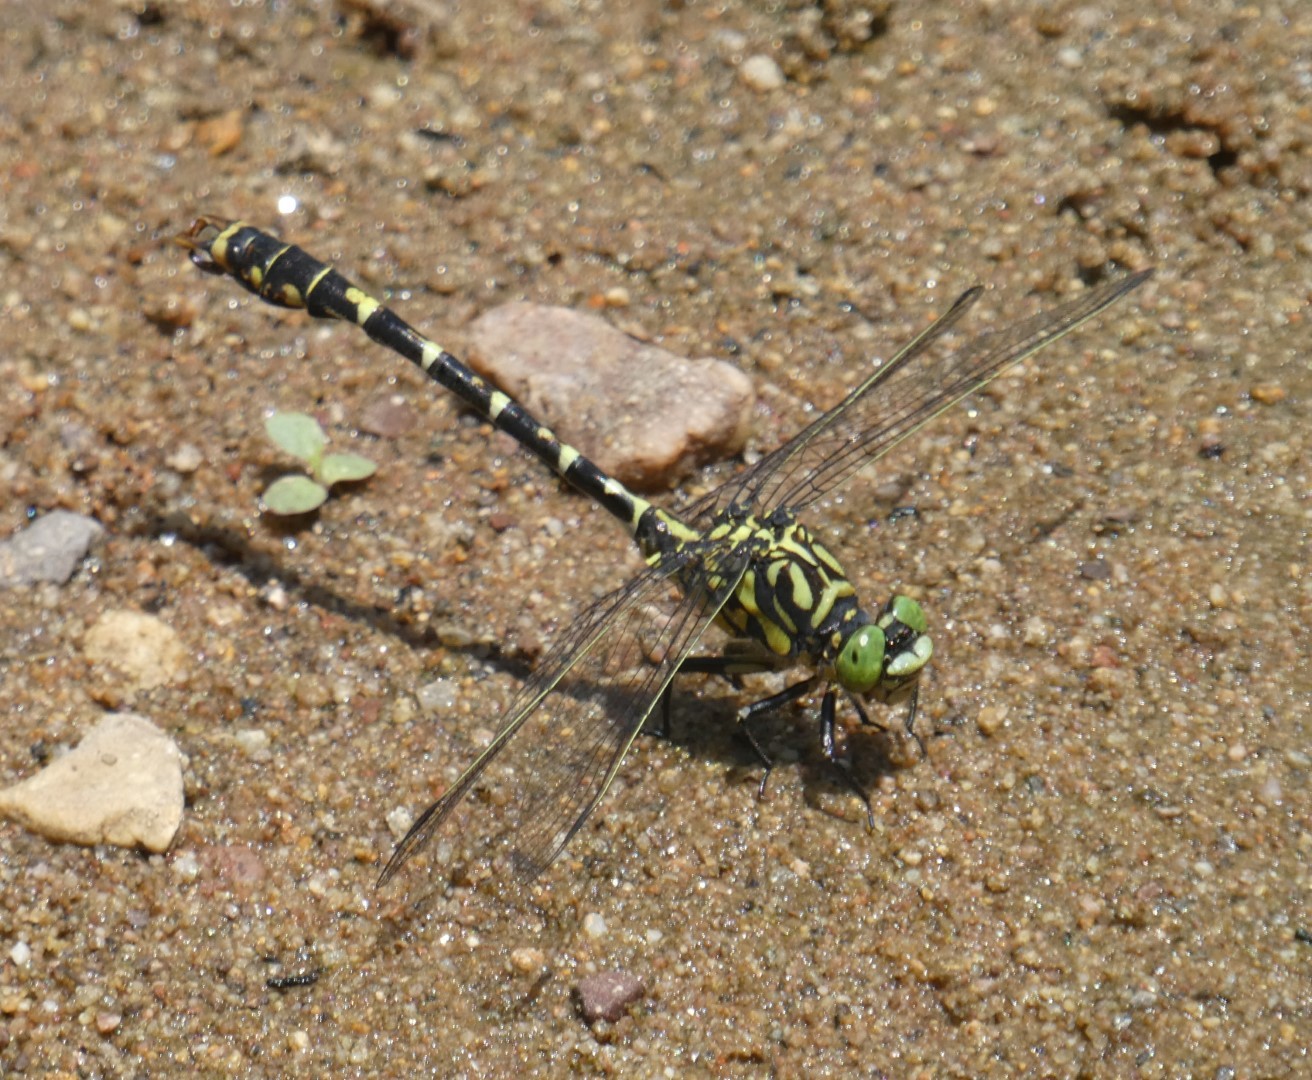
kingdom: Animalia
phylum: Arthropoda
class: Insecta
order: Odonata
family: Gomphidae
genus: Onychogomphus
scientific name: Onychogomphus forcipatus
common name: Small pincertail
